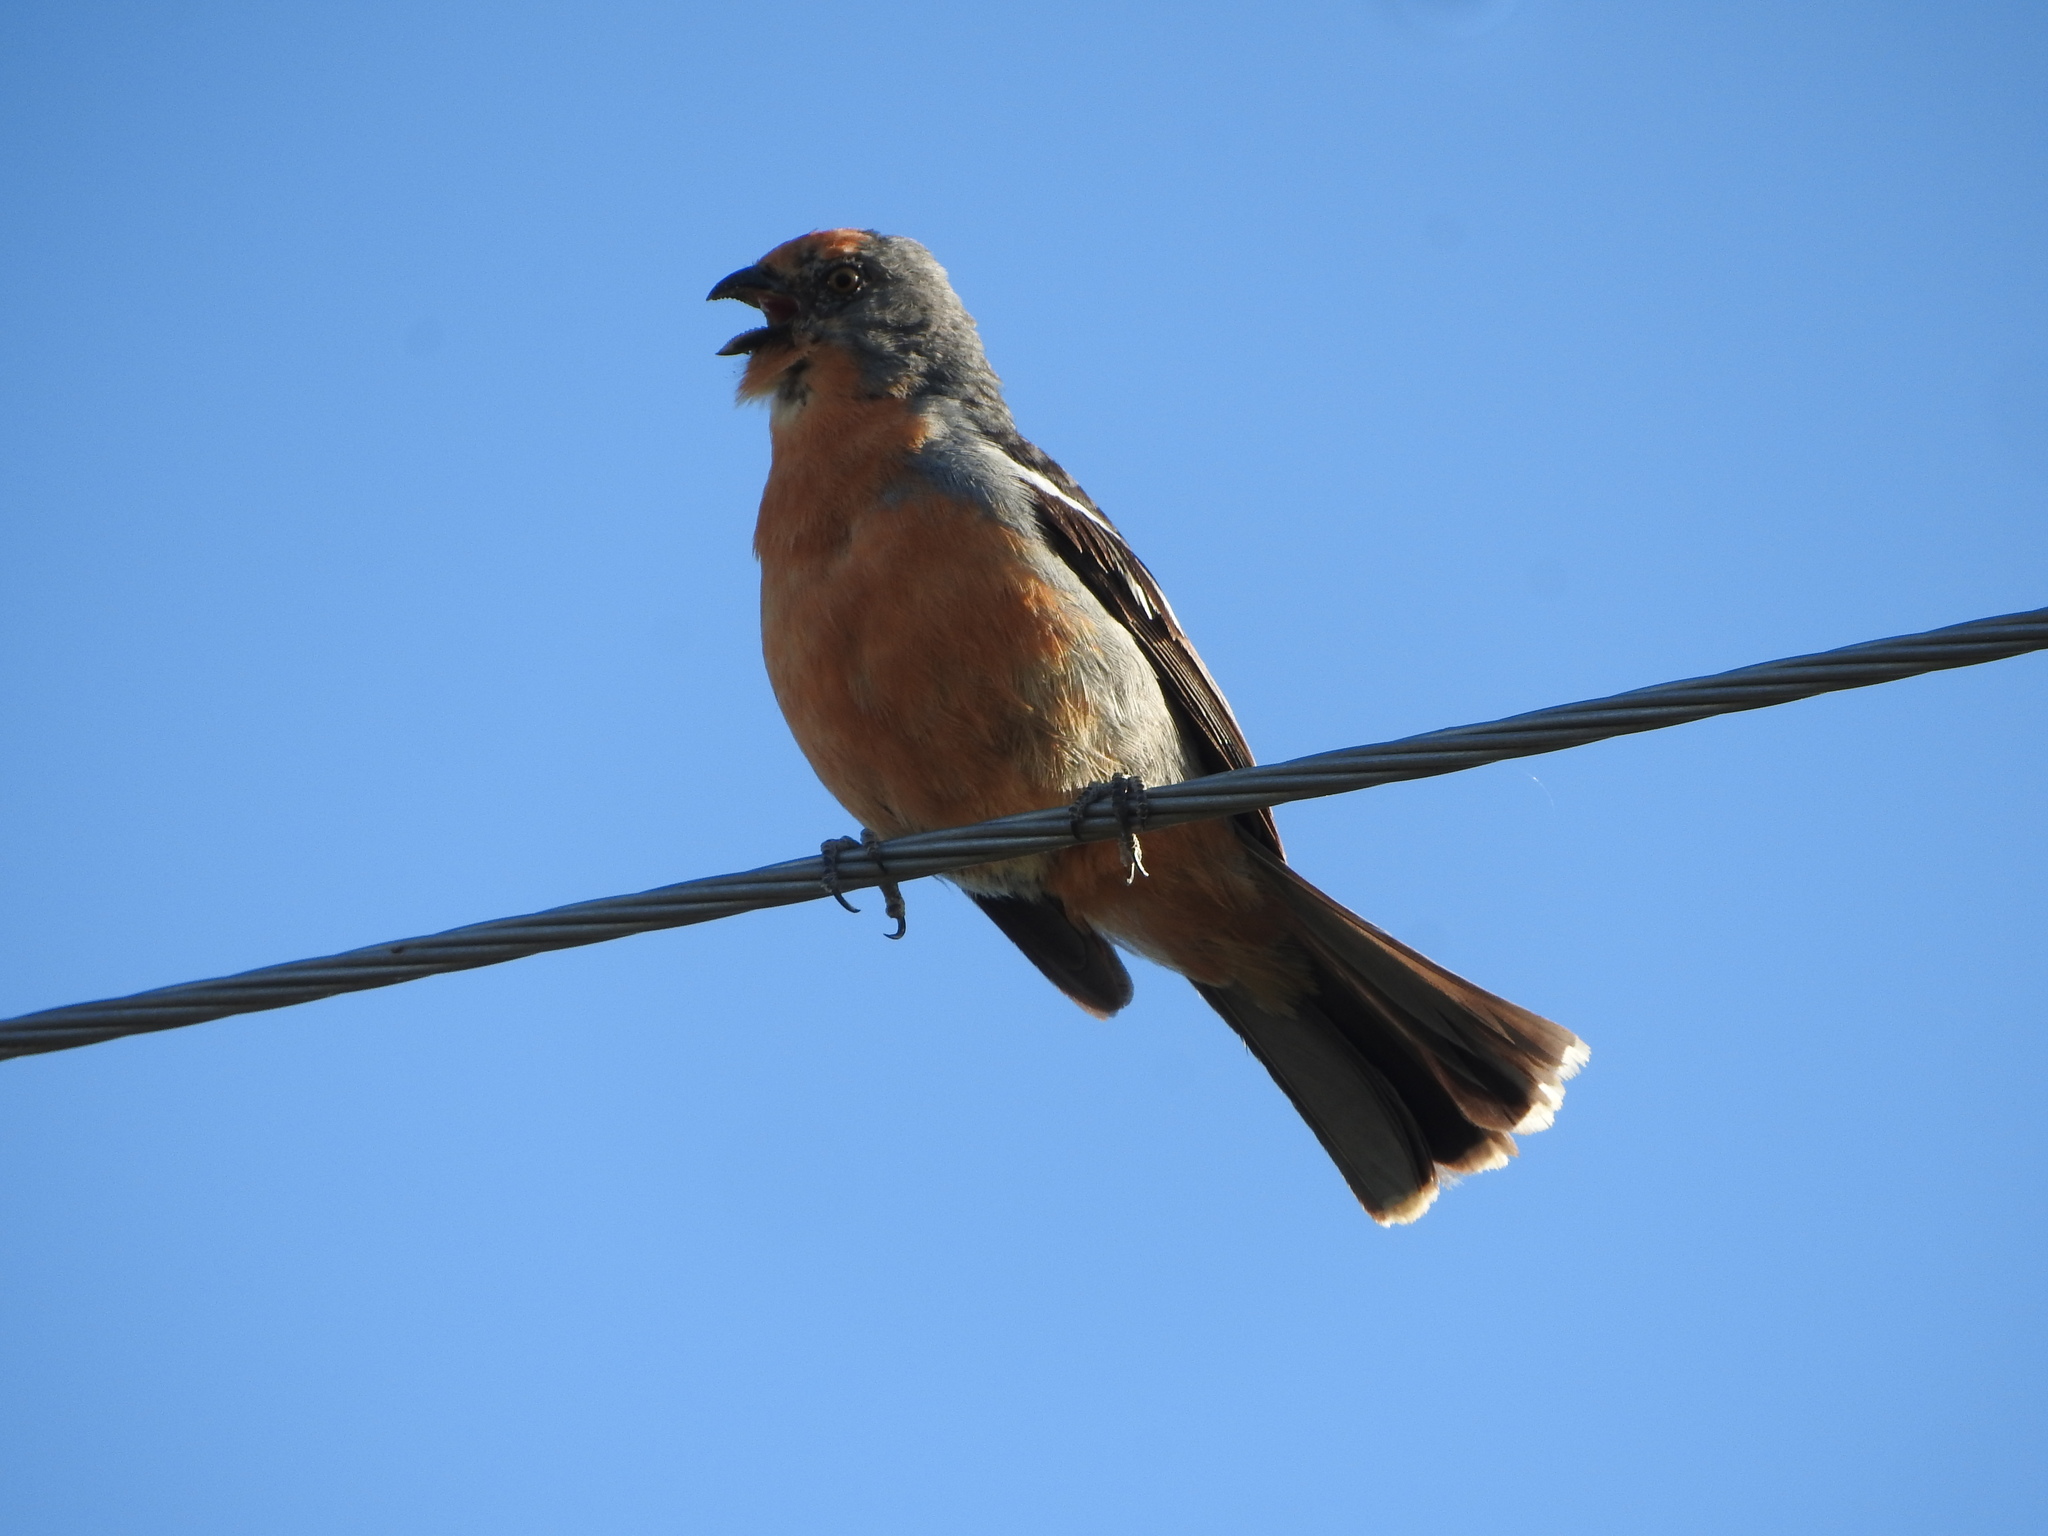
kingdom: Animalia
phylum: Chordata
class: Aves
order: Passeriformes
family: Cotingidae
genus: Phytotoma
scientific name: Phytotoma rutila
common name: White-tipped plantcutter
